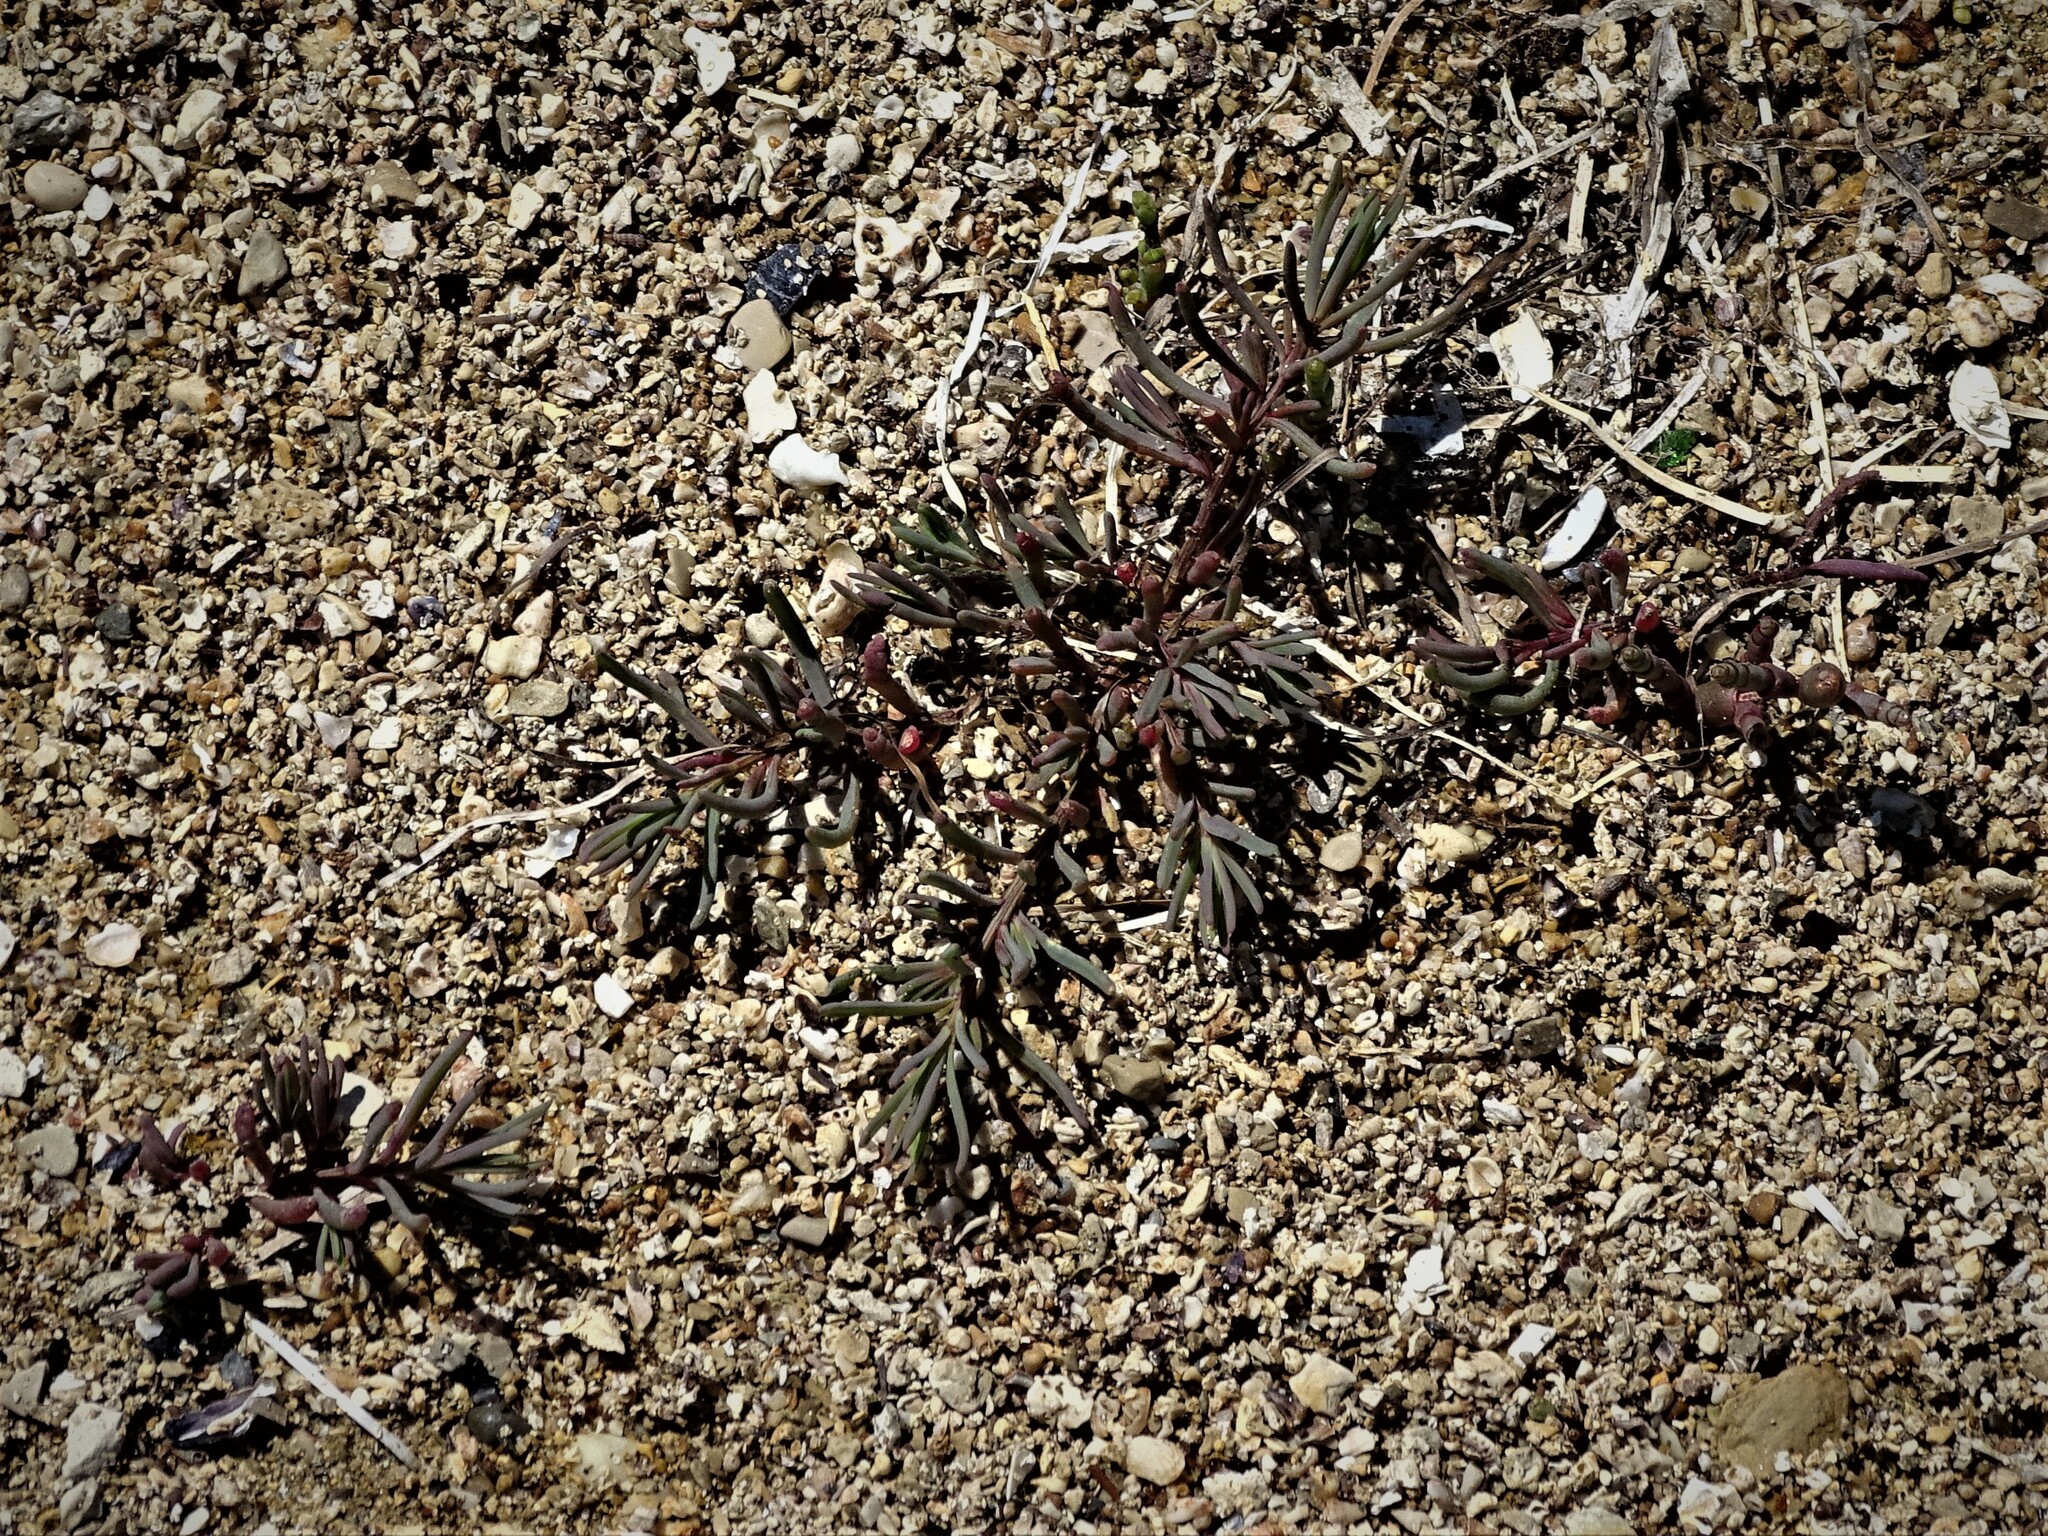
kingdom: Plantae
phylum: Tracheophyta
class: Magnoliopsida
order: Caryophyllales
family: Amaranthaceae
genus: Suaeda
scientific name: Suaeda maritima
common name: Annual sea-blite
